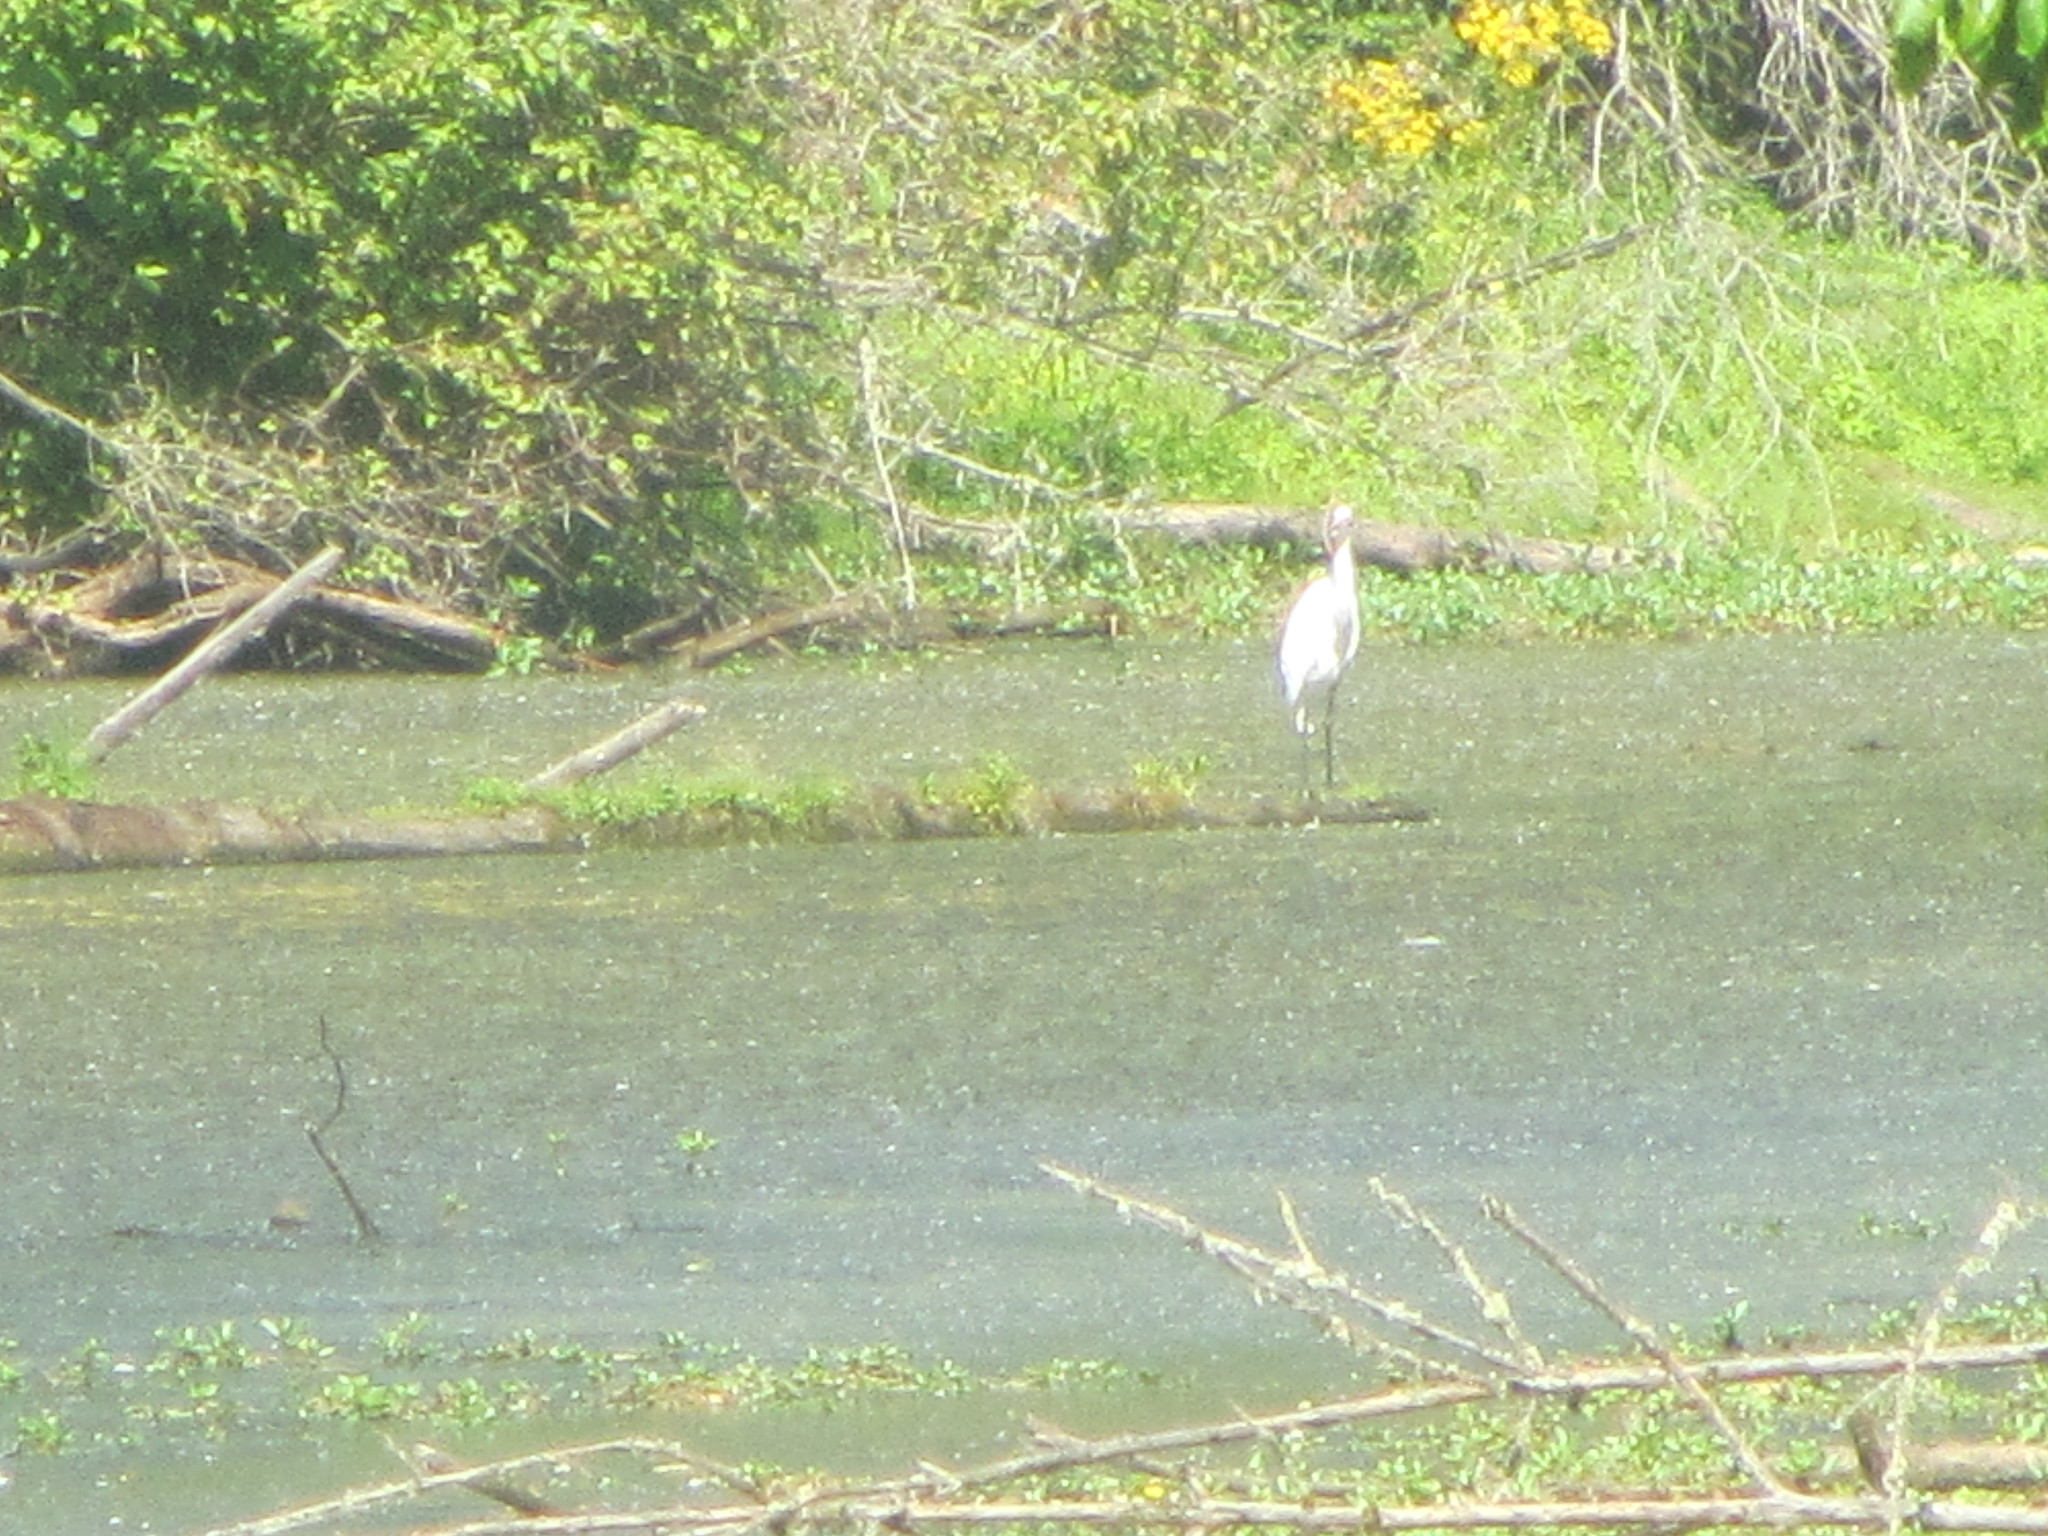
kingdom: Animalia
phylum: Chordata
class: Aves
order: Pelecaniformes
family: Ardeidae
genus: Ardea
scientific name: Ardea alba
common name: Great egret
